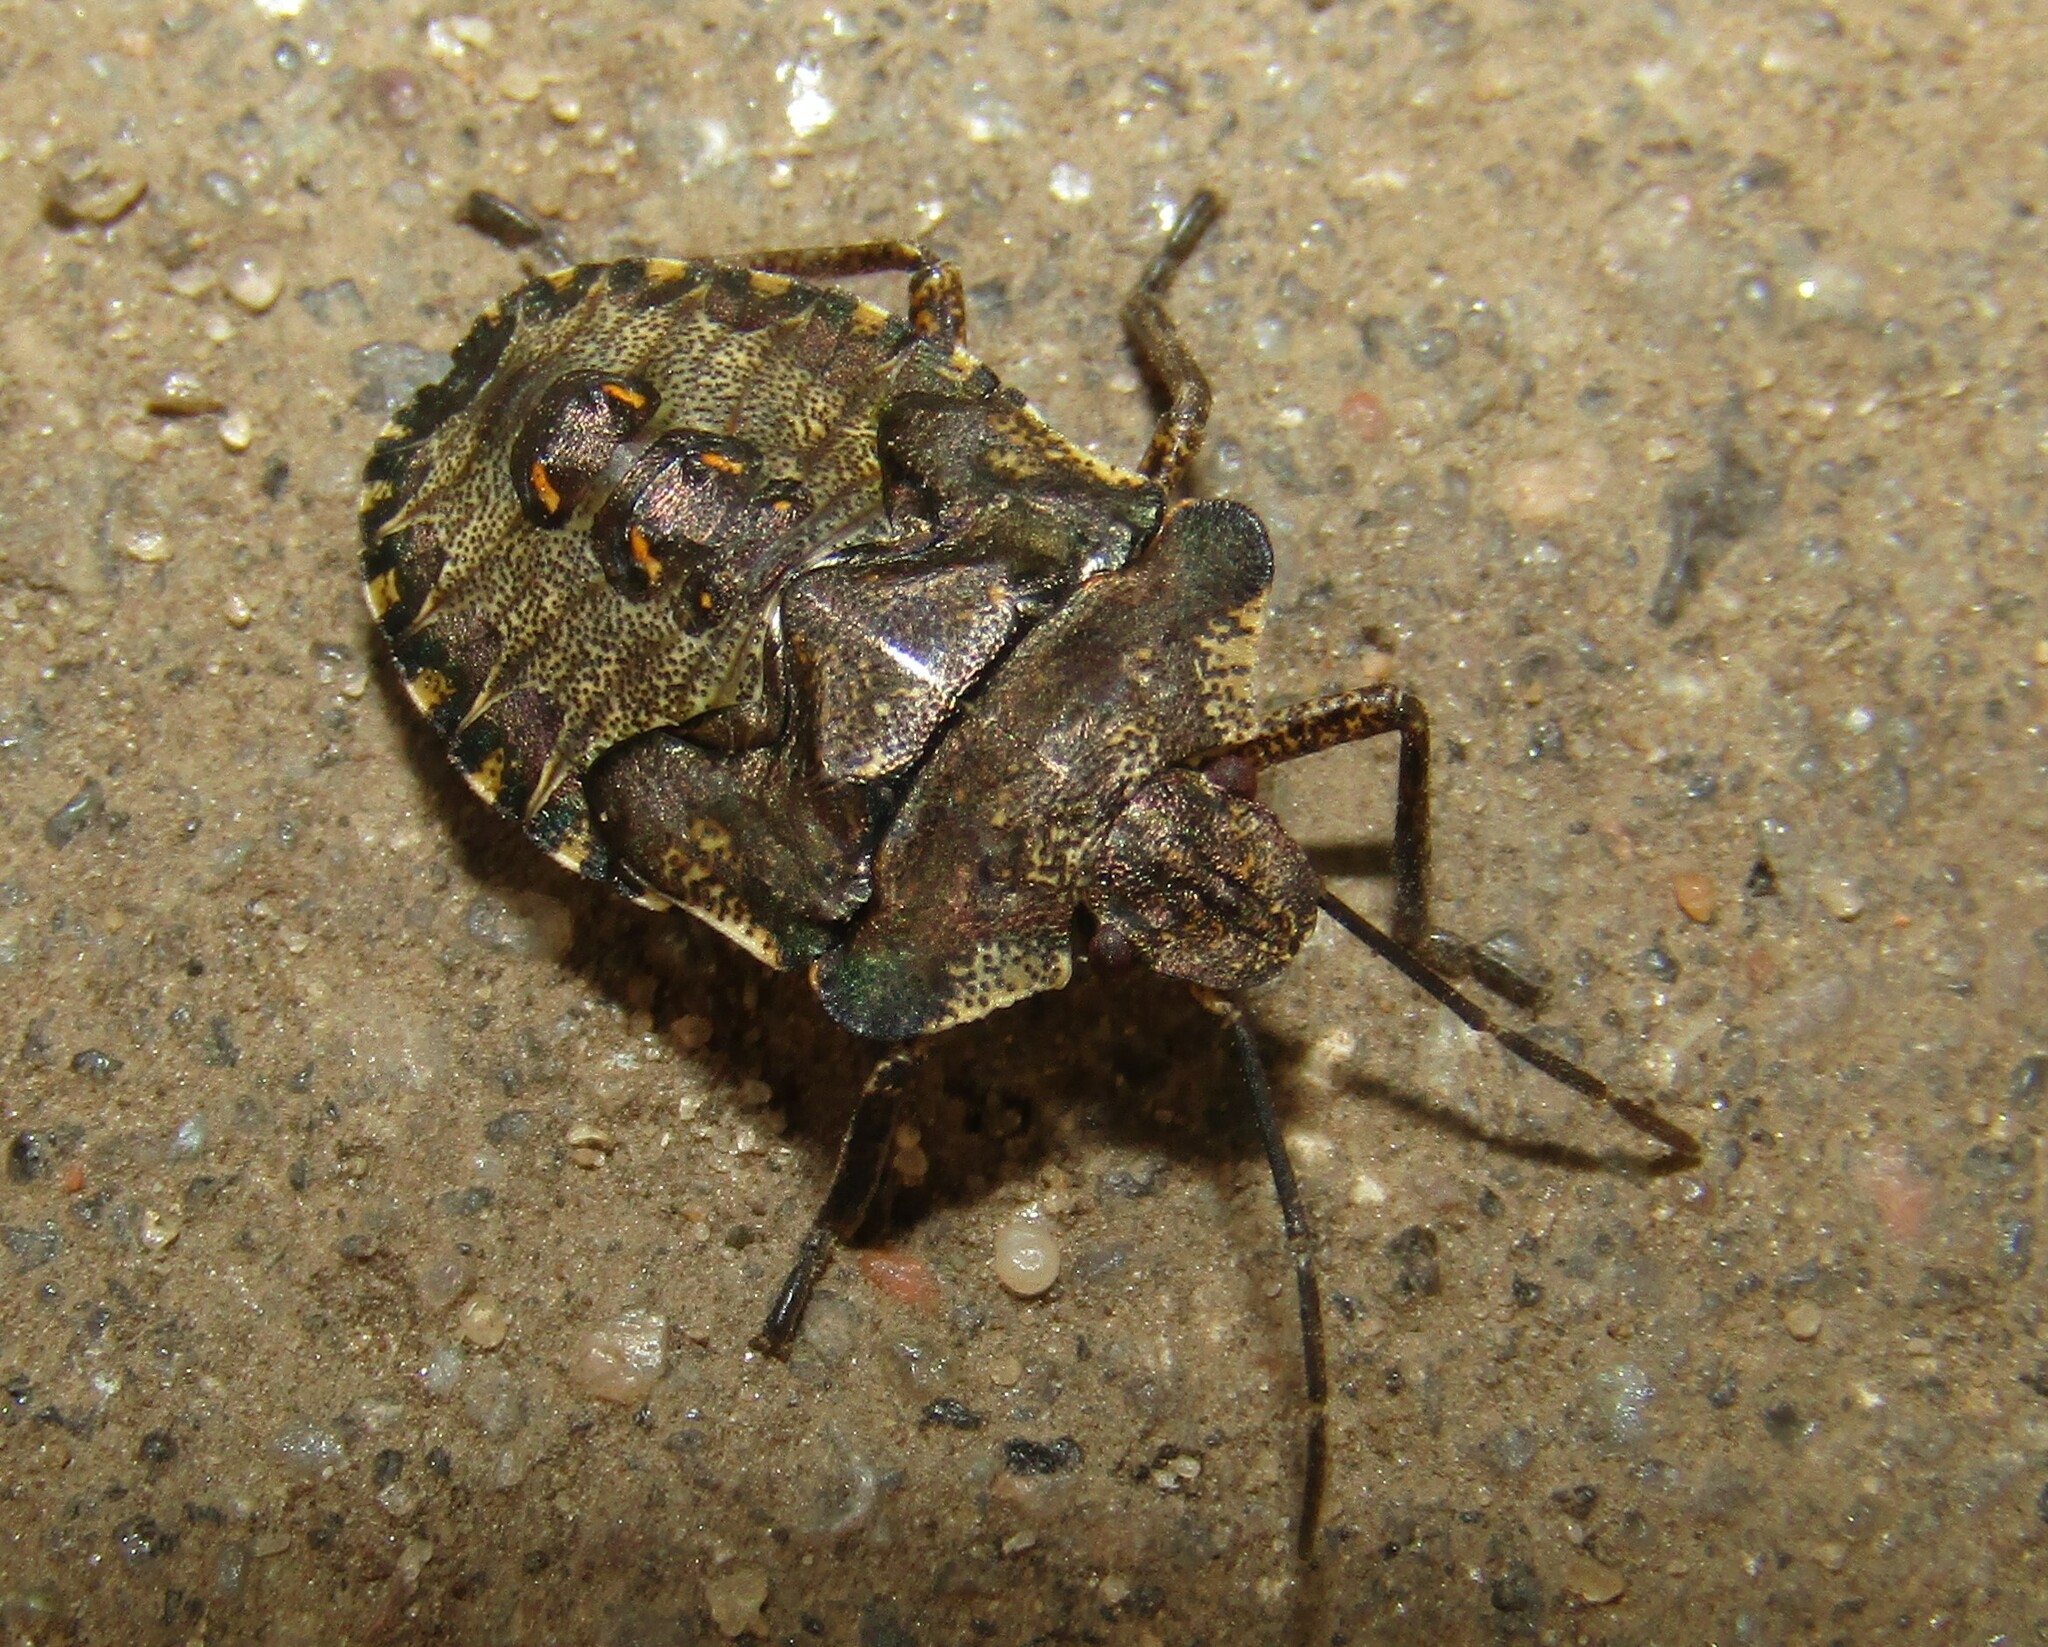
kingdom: Animalia
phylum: Arthropoda
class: Insecta
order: Hemiptera
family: Pentatomidae
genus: Pentatoma
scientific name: Pentatoma rufipes
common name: Forest bug
